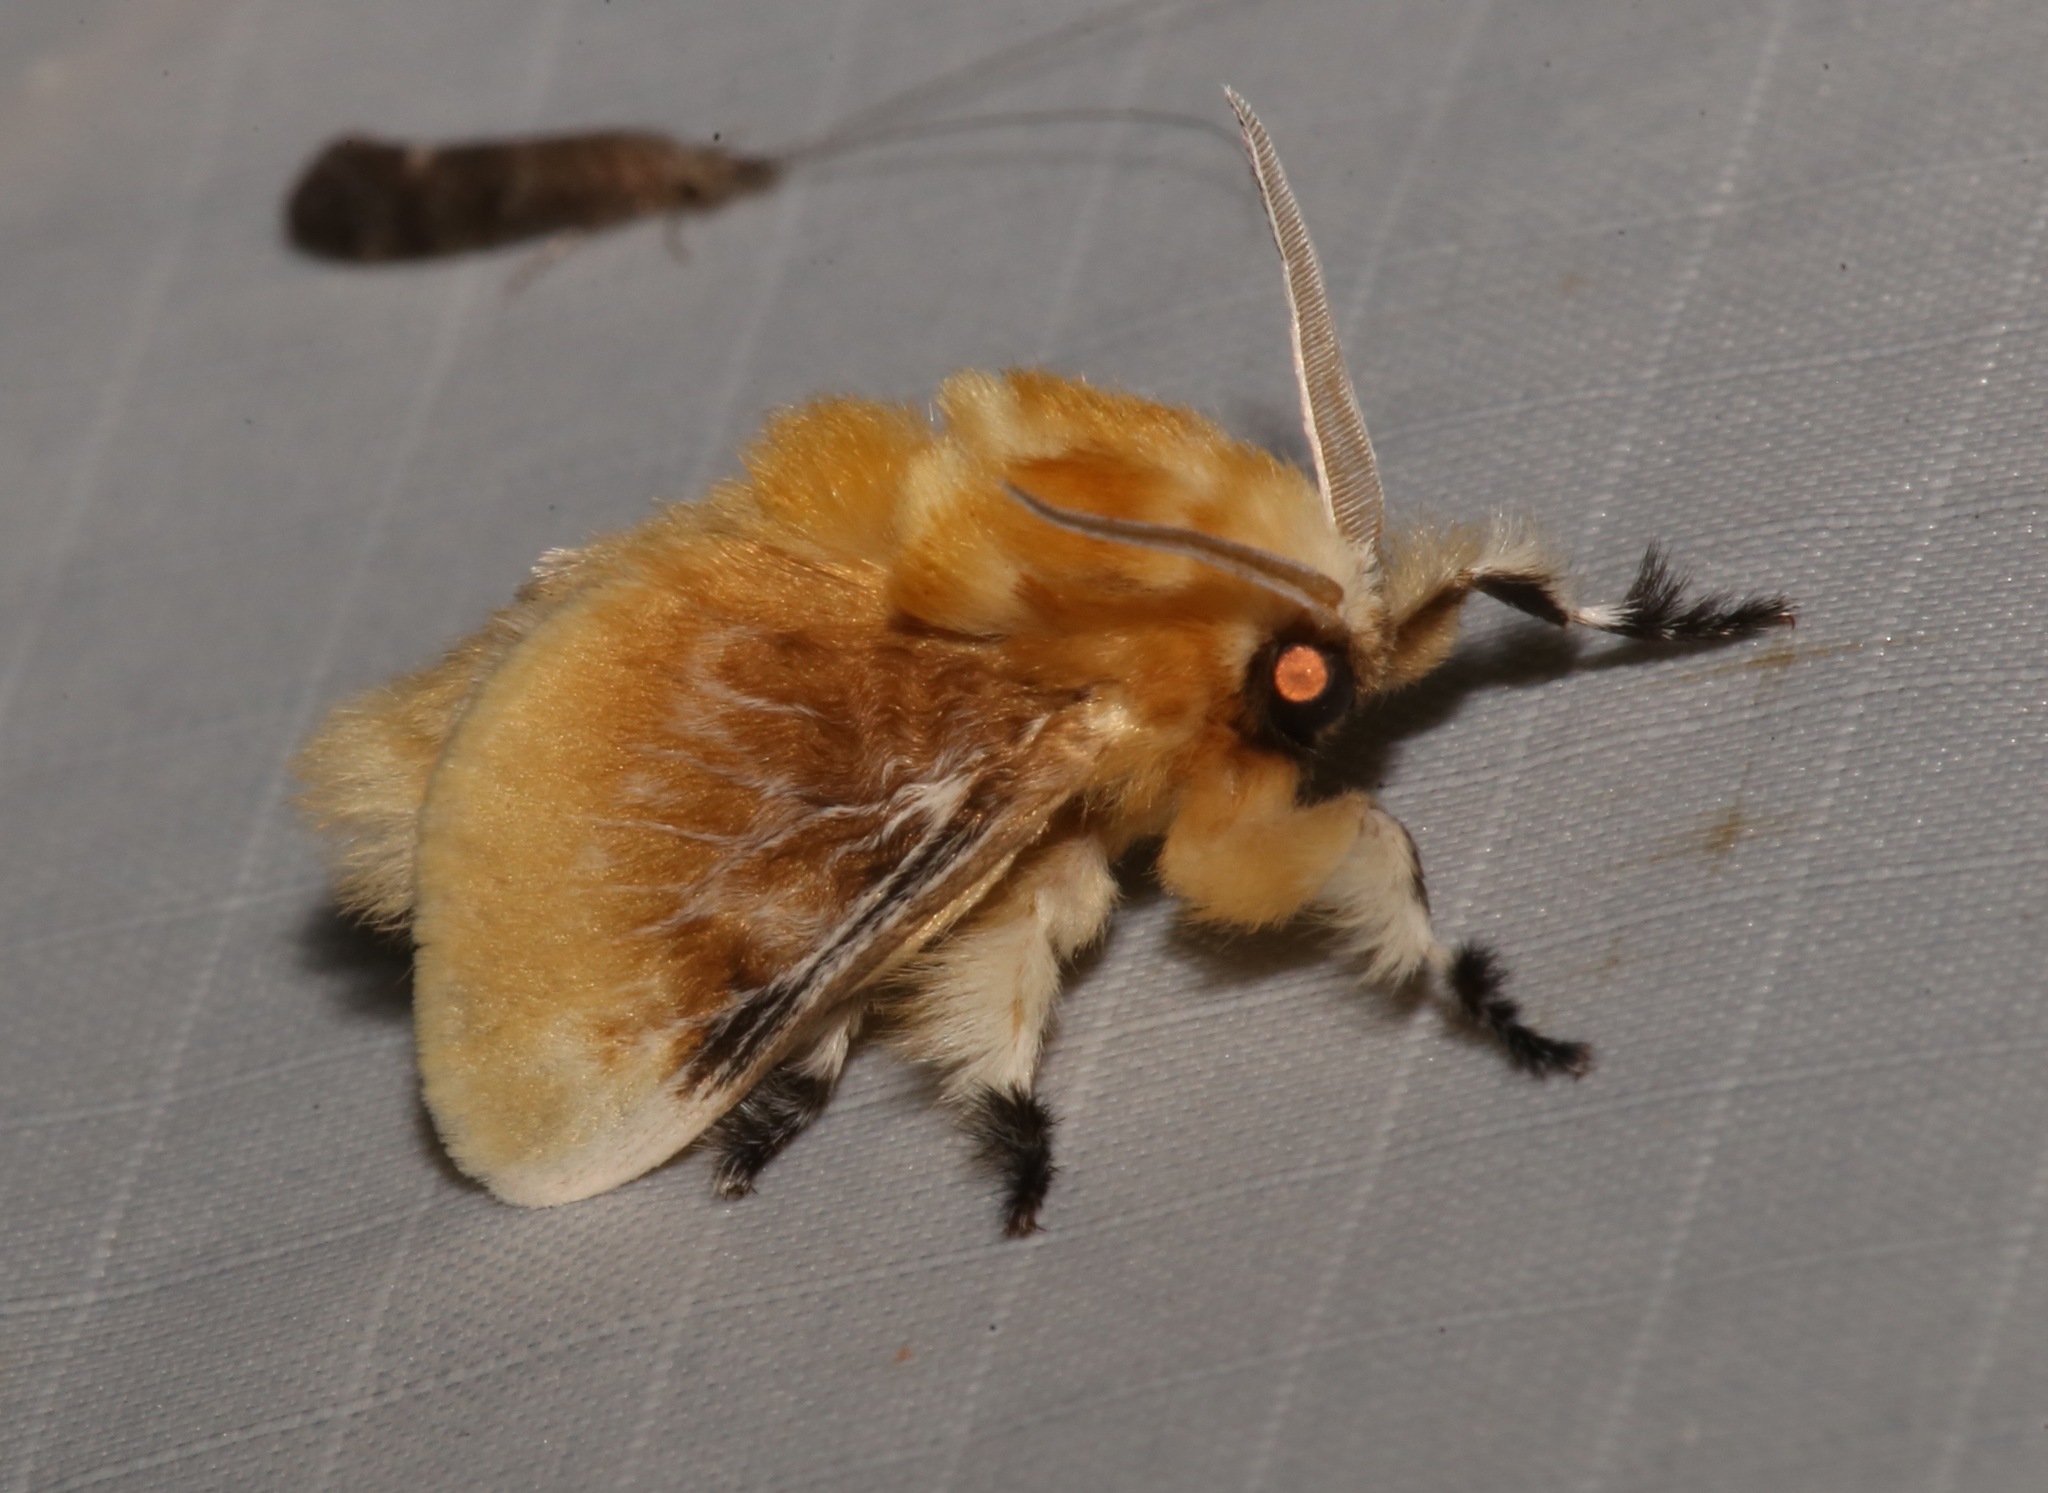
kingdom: Animalia
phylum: Arthropoda
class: Insecta
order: Lepidoptera
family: Megalopygidae
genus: Megalopyge
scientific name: Megalopyge opercularis
